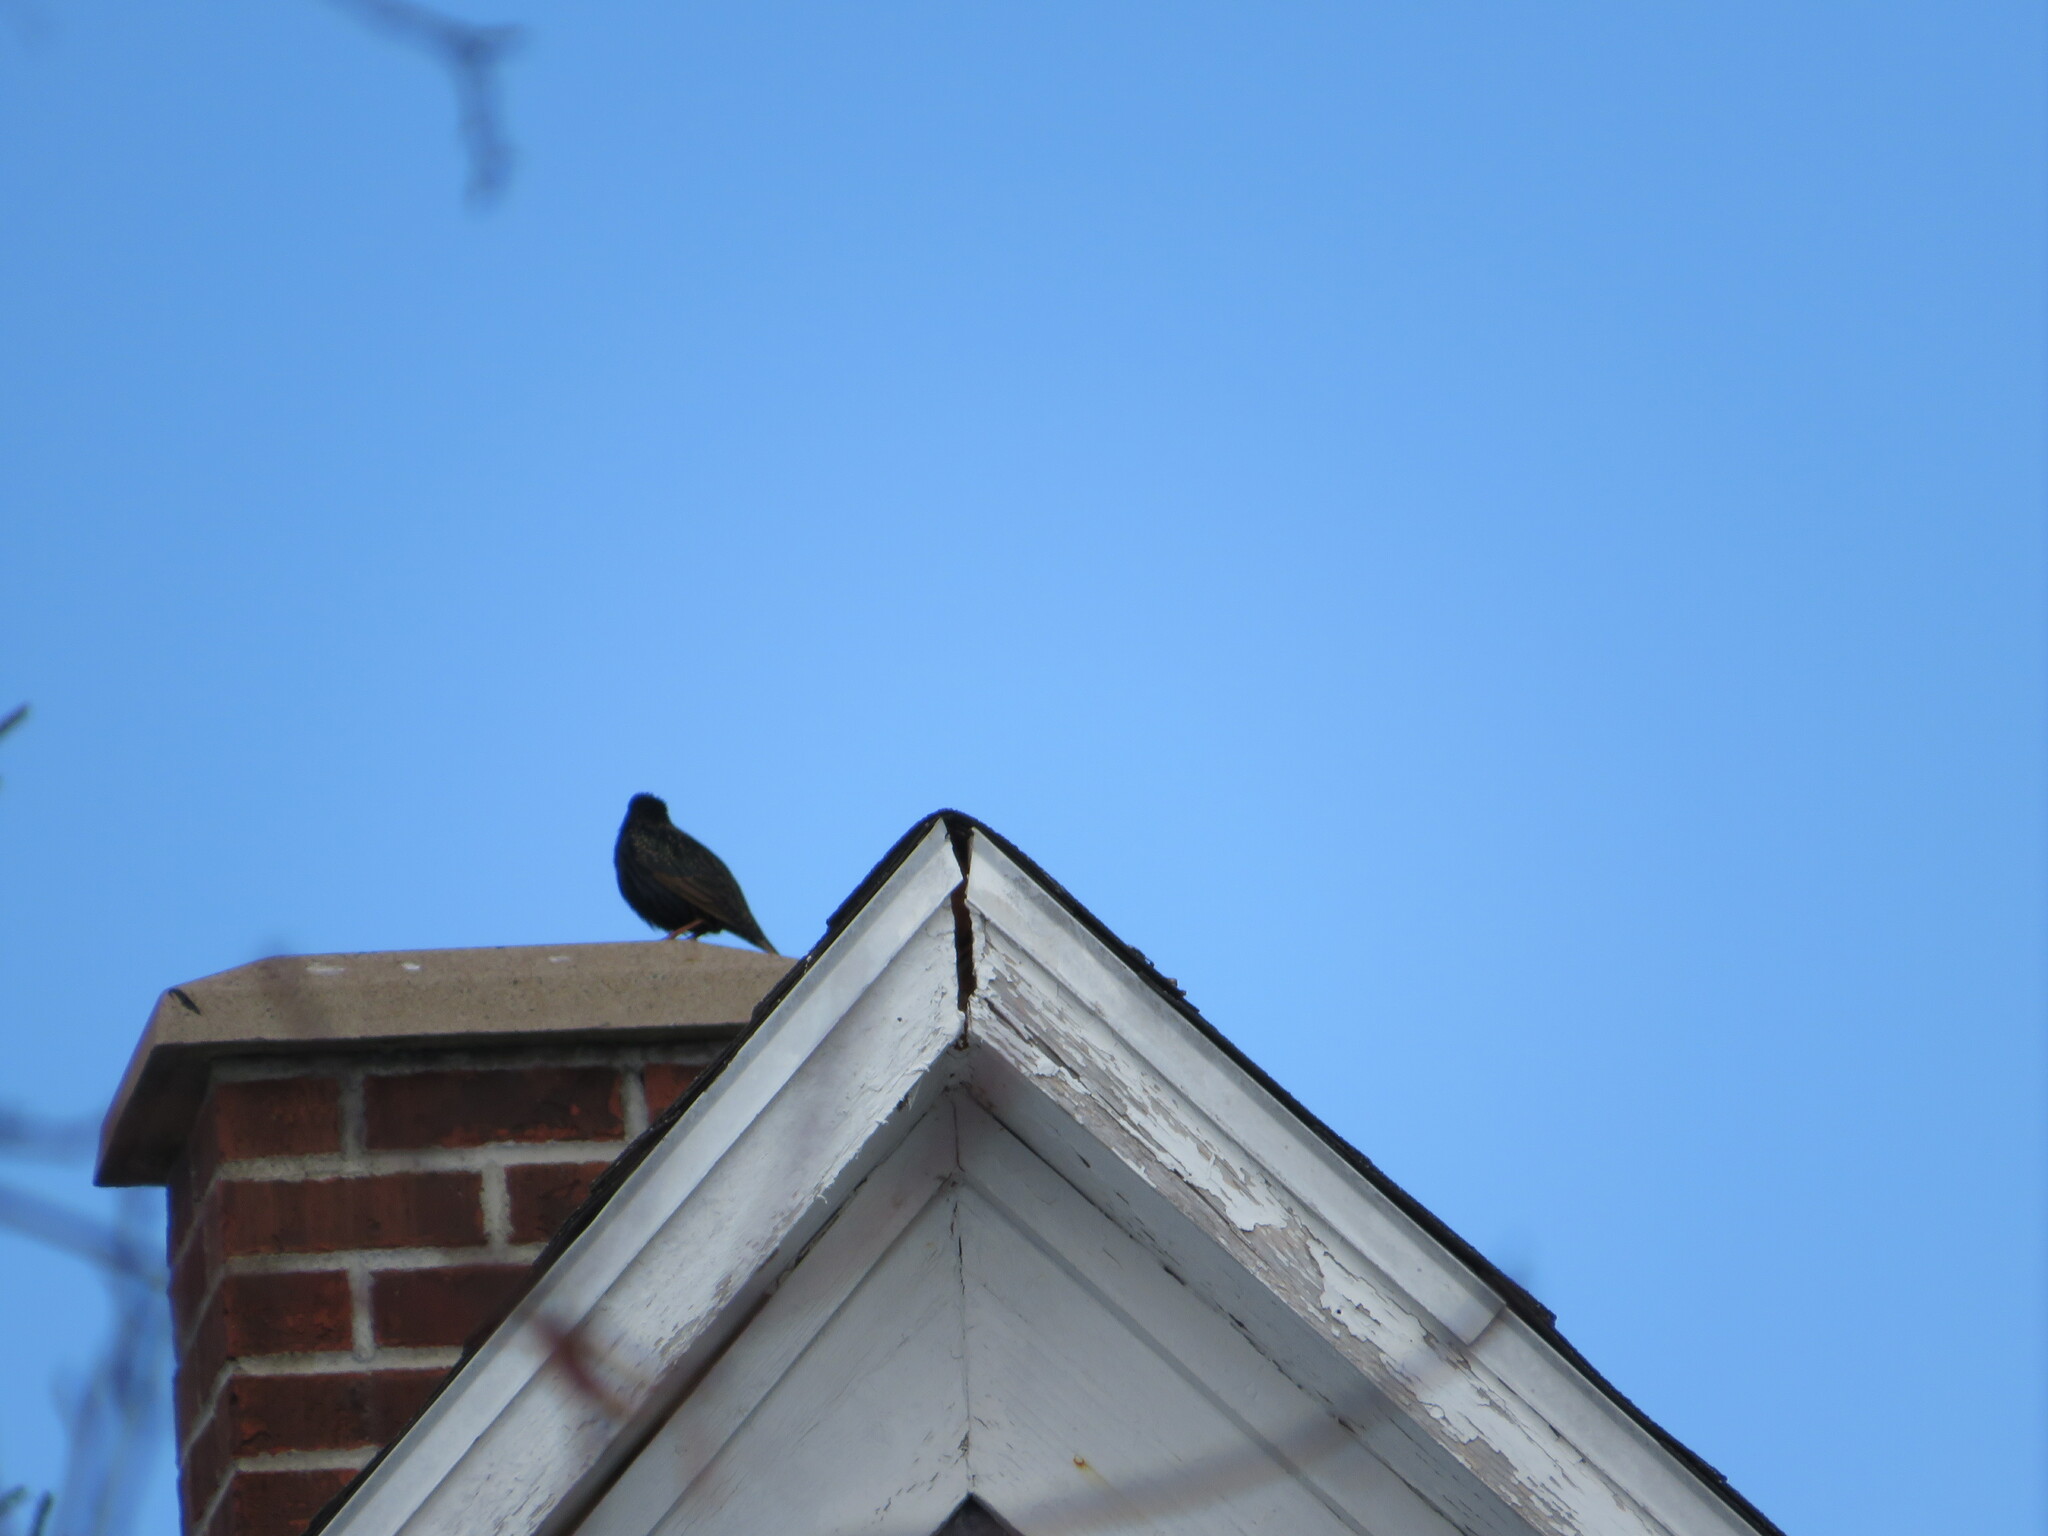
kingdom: Animalia
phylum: Chordata
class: Aves
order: Passeriformes
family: Sturnidae
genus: Sturnus
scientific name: Sturnus vulgaris
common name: Common starling
